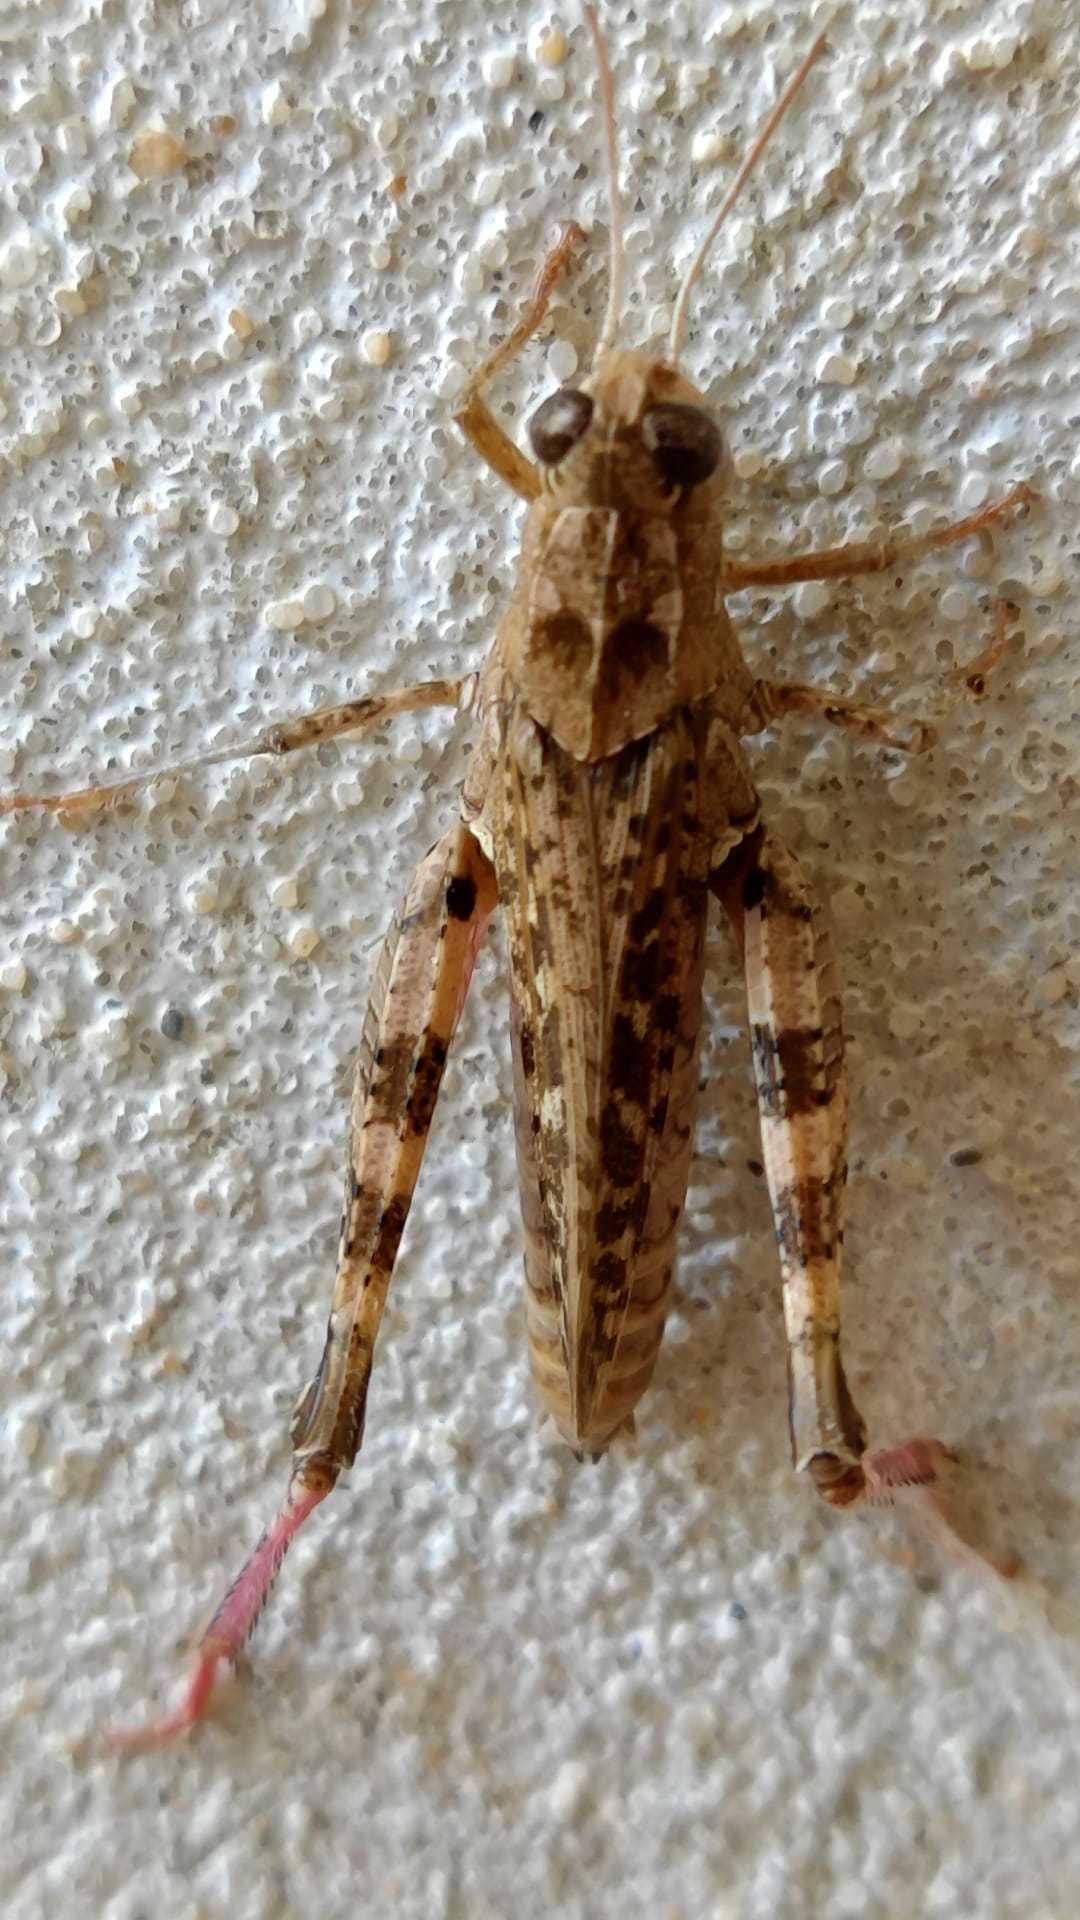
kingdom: Animalia
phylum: Arthropoda
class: Insecta
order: Orthoptera
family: Acrididae
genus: Calliptamus
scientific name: Calliptamus barbarus
